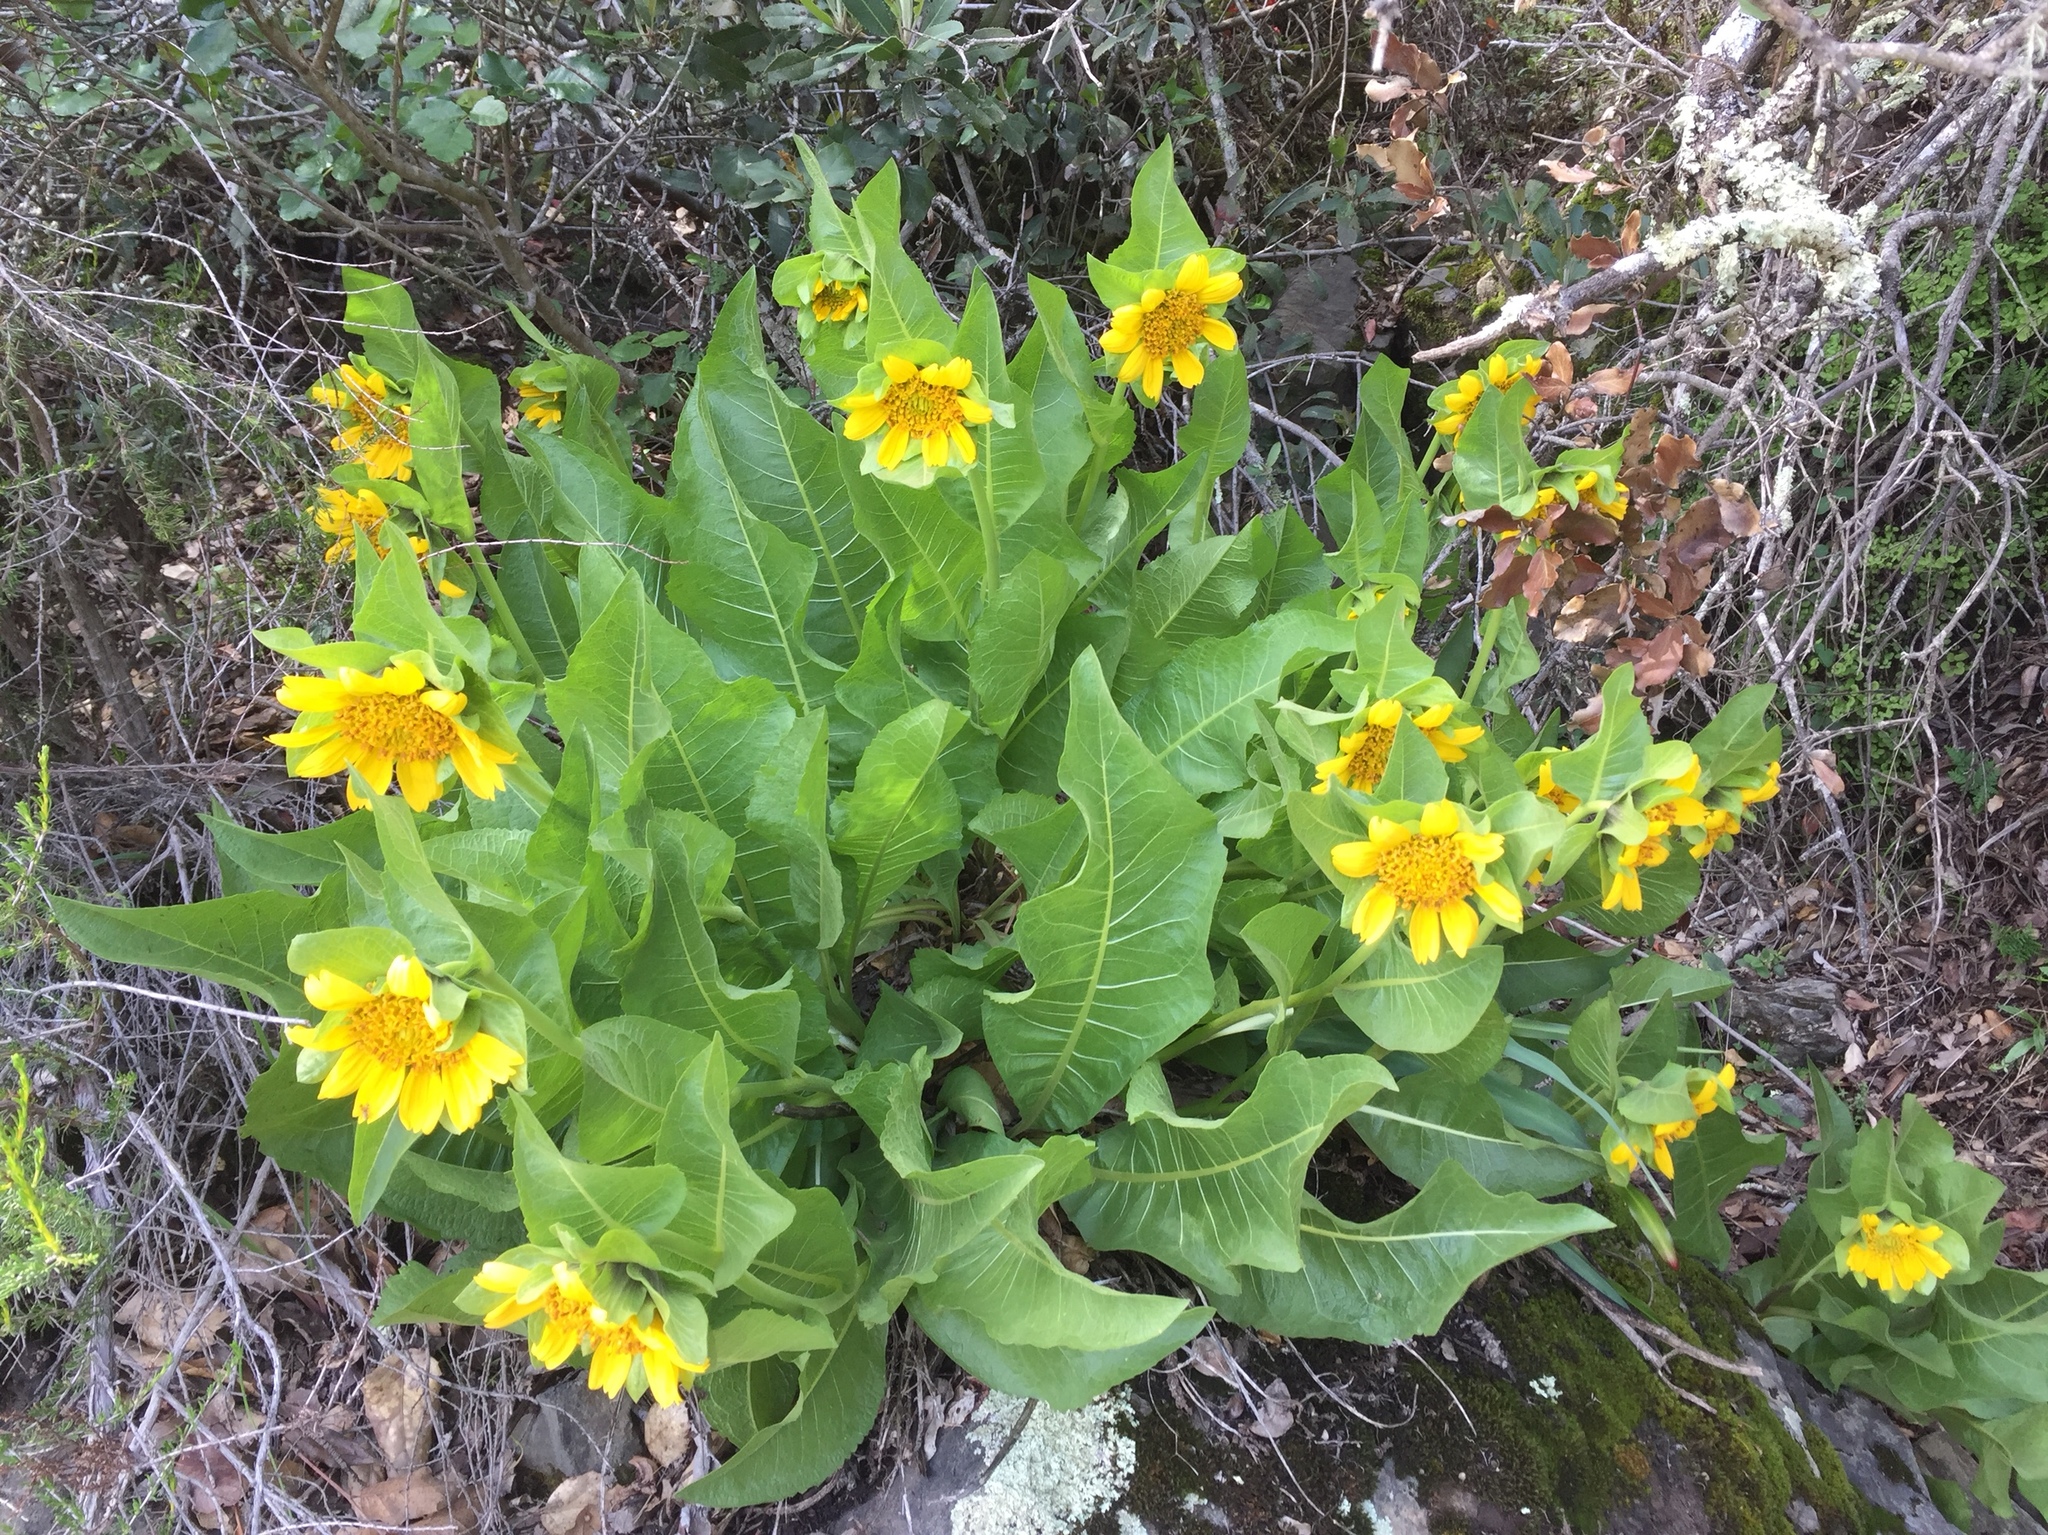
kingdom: Plantae
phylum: Tracheophyta
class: Magnoliopsida
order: Asterales
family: Asteraceae
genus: Wyethia
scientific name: Wyethia glabra
